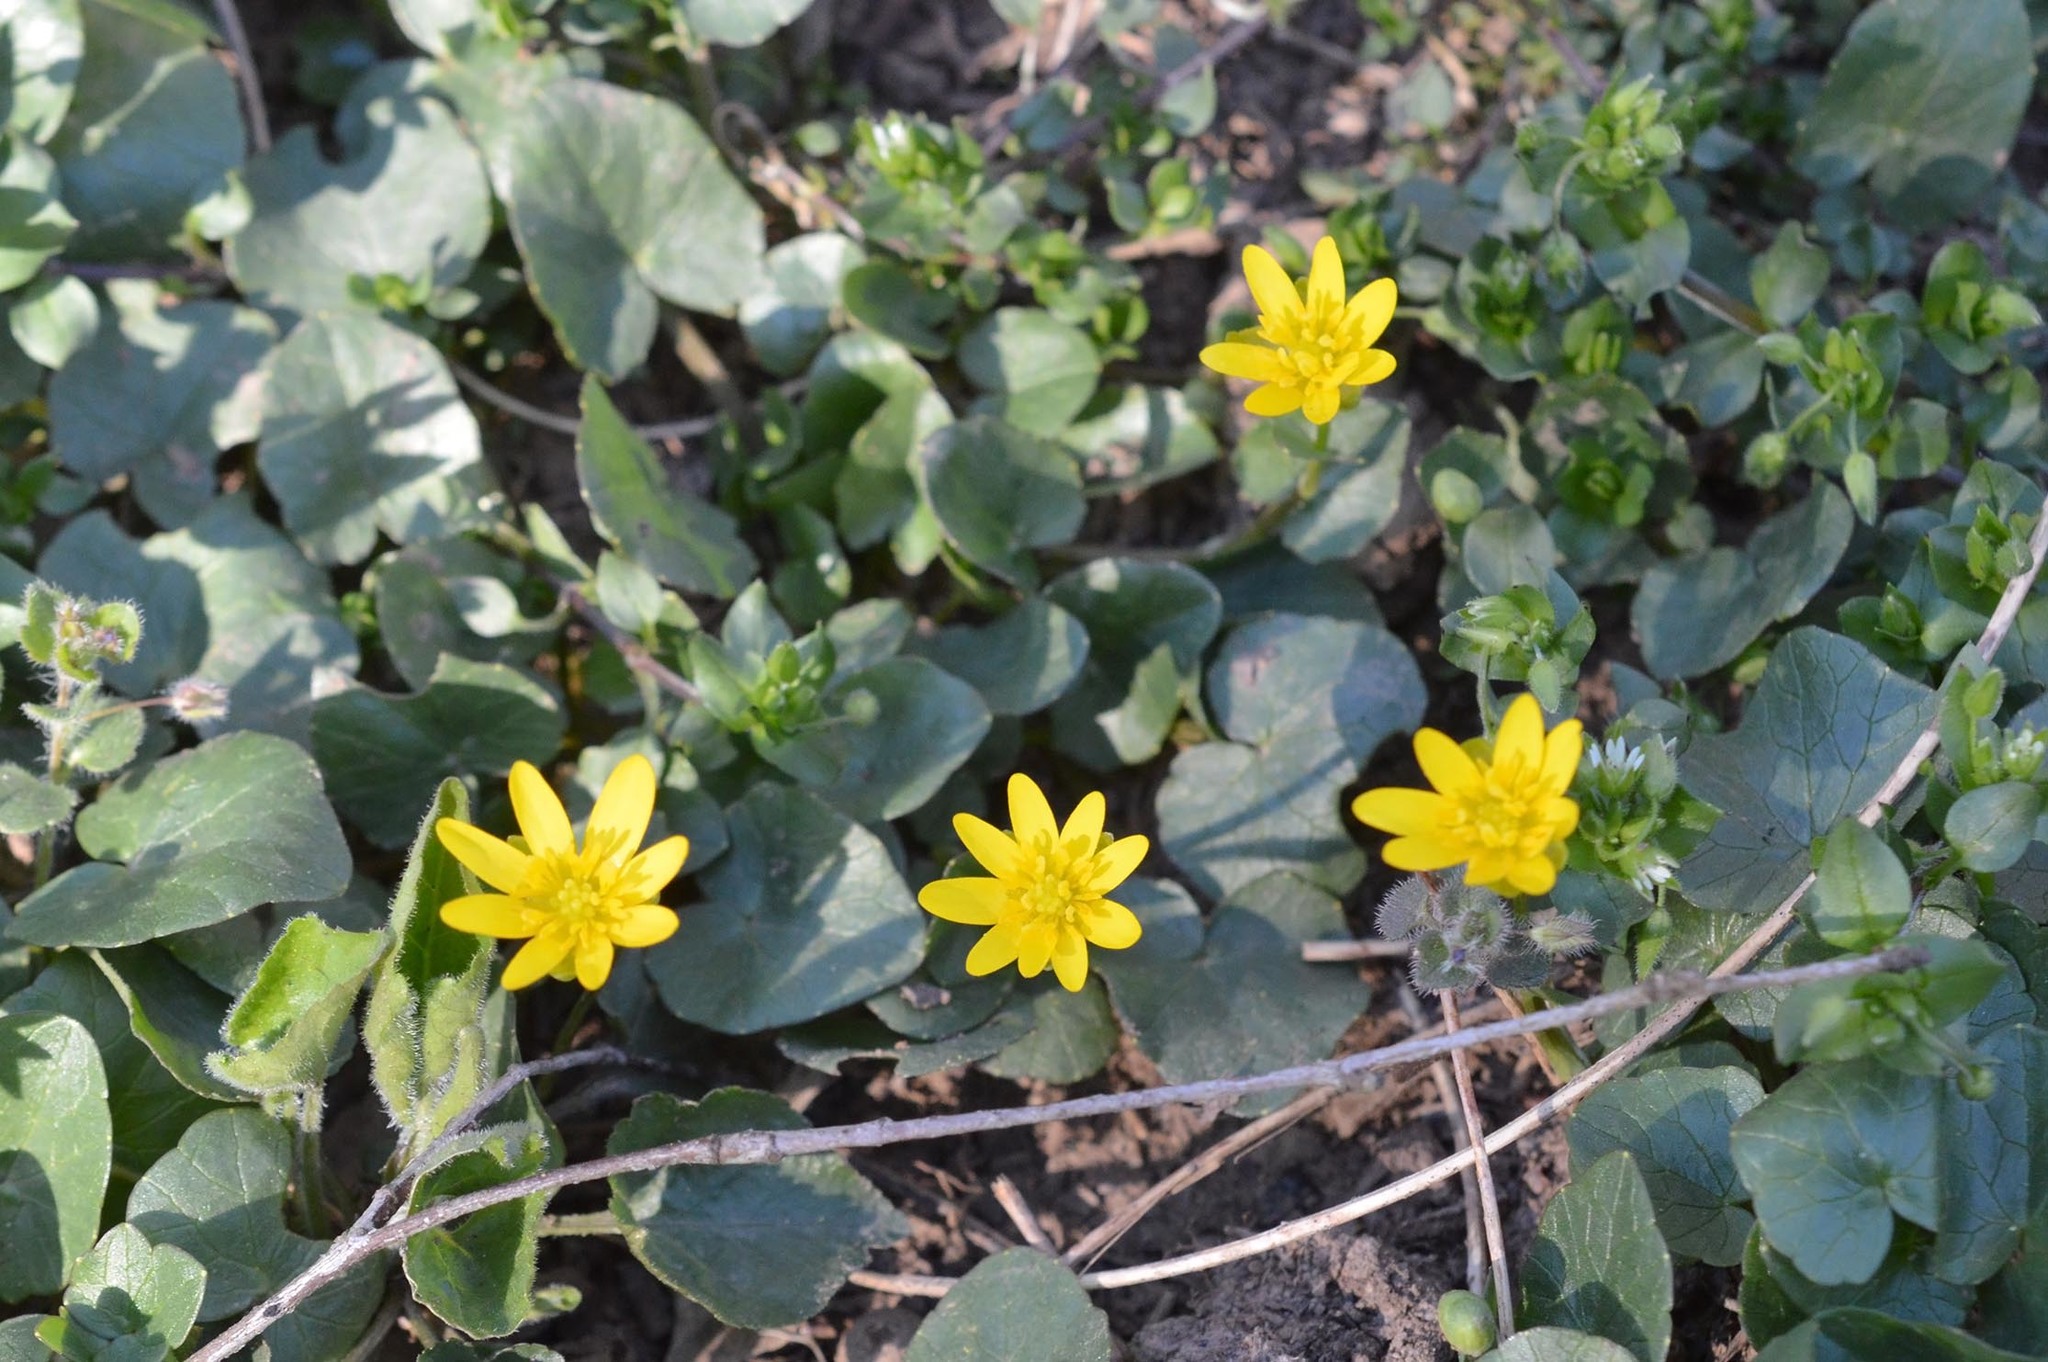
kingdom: Plantae
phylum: Tracheophyta
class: Magnoliopsida
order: Ranunculales
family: Ranunculaceae
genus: Ficaria
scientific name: Ficaria verna
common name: Lesser celandine
